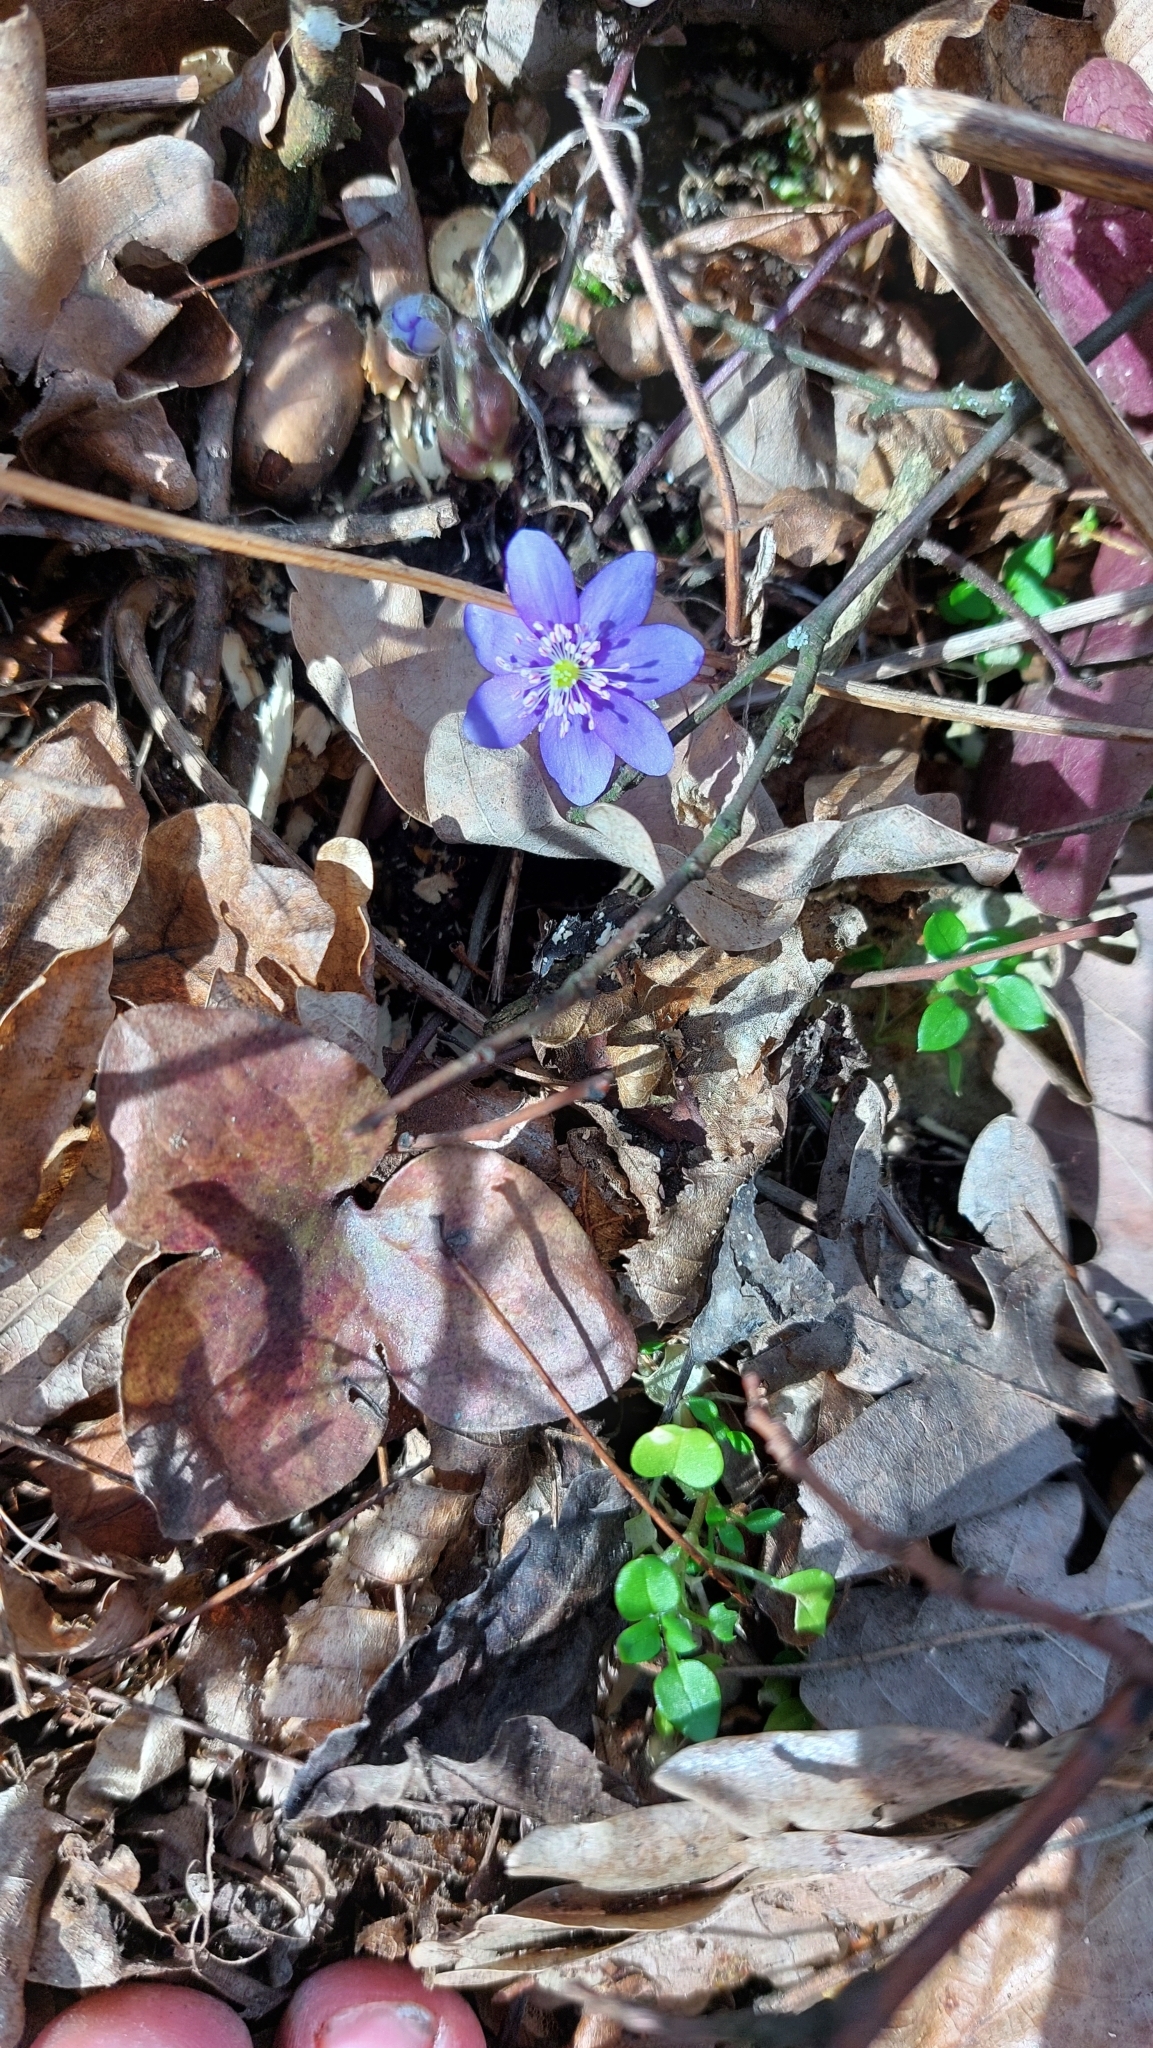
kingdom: Plantae
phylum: Tracheophyta
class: Magnoliopsida
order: Ranunculales
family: Ranunculaceae
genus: Hepatica
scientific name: Hepatica nobilis
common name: Liverleaf
